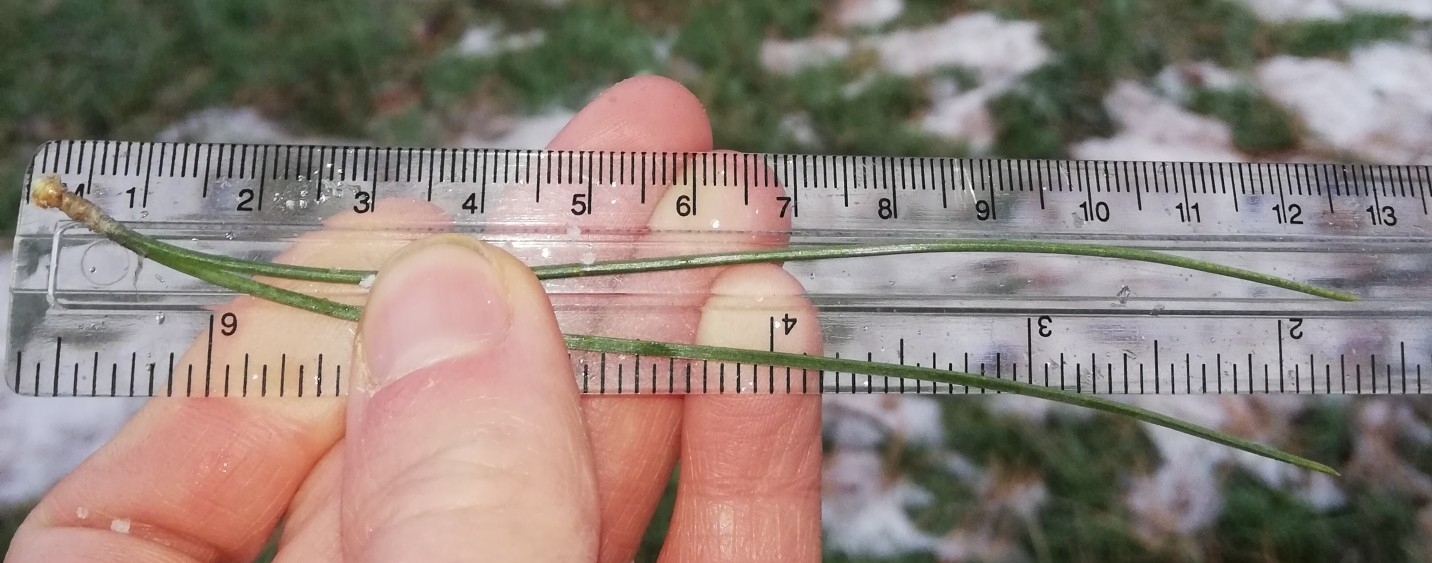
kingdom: Plantae
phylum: Tracheophyta
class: Pinopsida
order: Pinales
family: Pinaceae
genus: Pinus
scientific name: Pinus nigra
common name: Austrian pine
